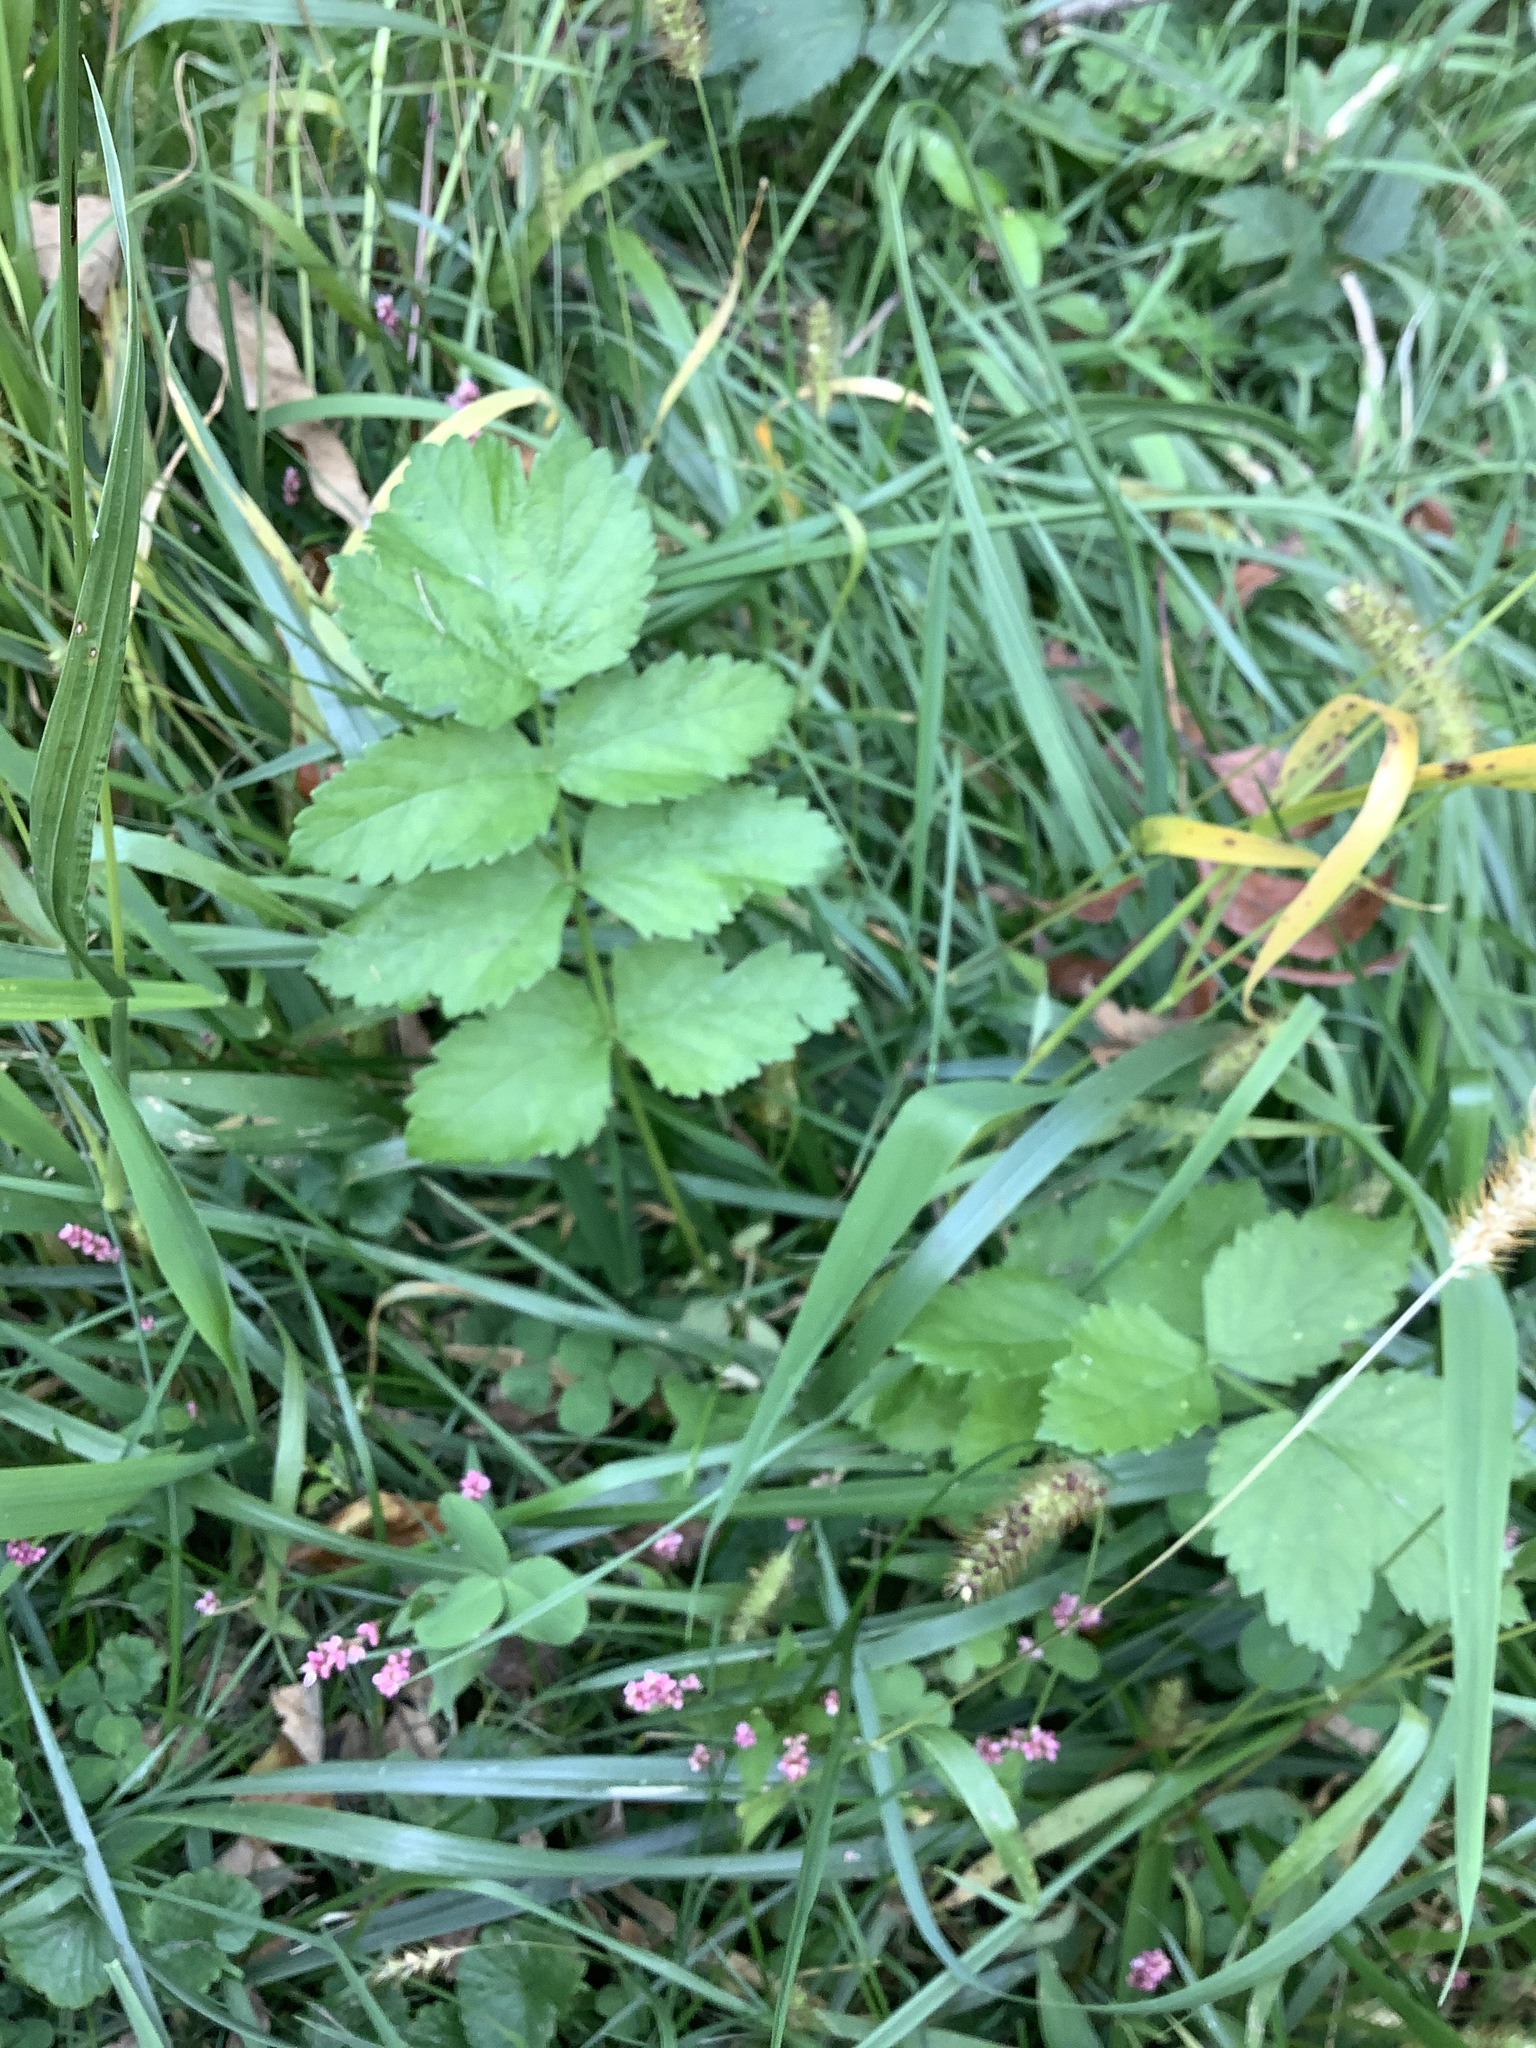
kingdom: Plantae
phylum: Tracheophyta
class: Magnoliopsida
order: Apiales
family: Apiaceae
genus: Pastinaca
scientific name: Pastinaca sativa
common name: Wild parsnip
